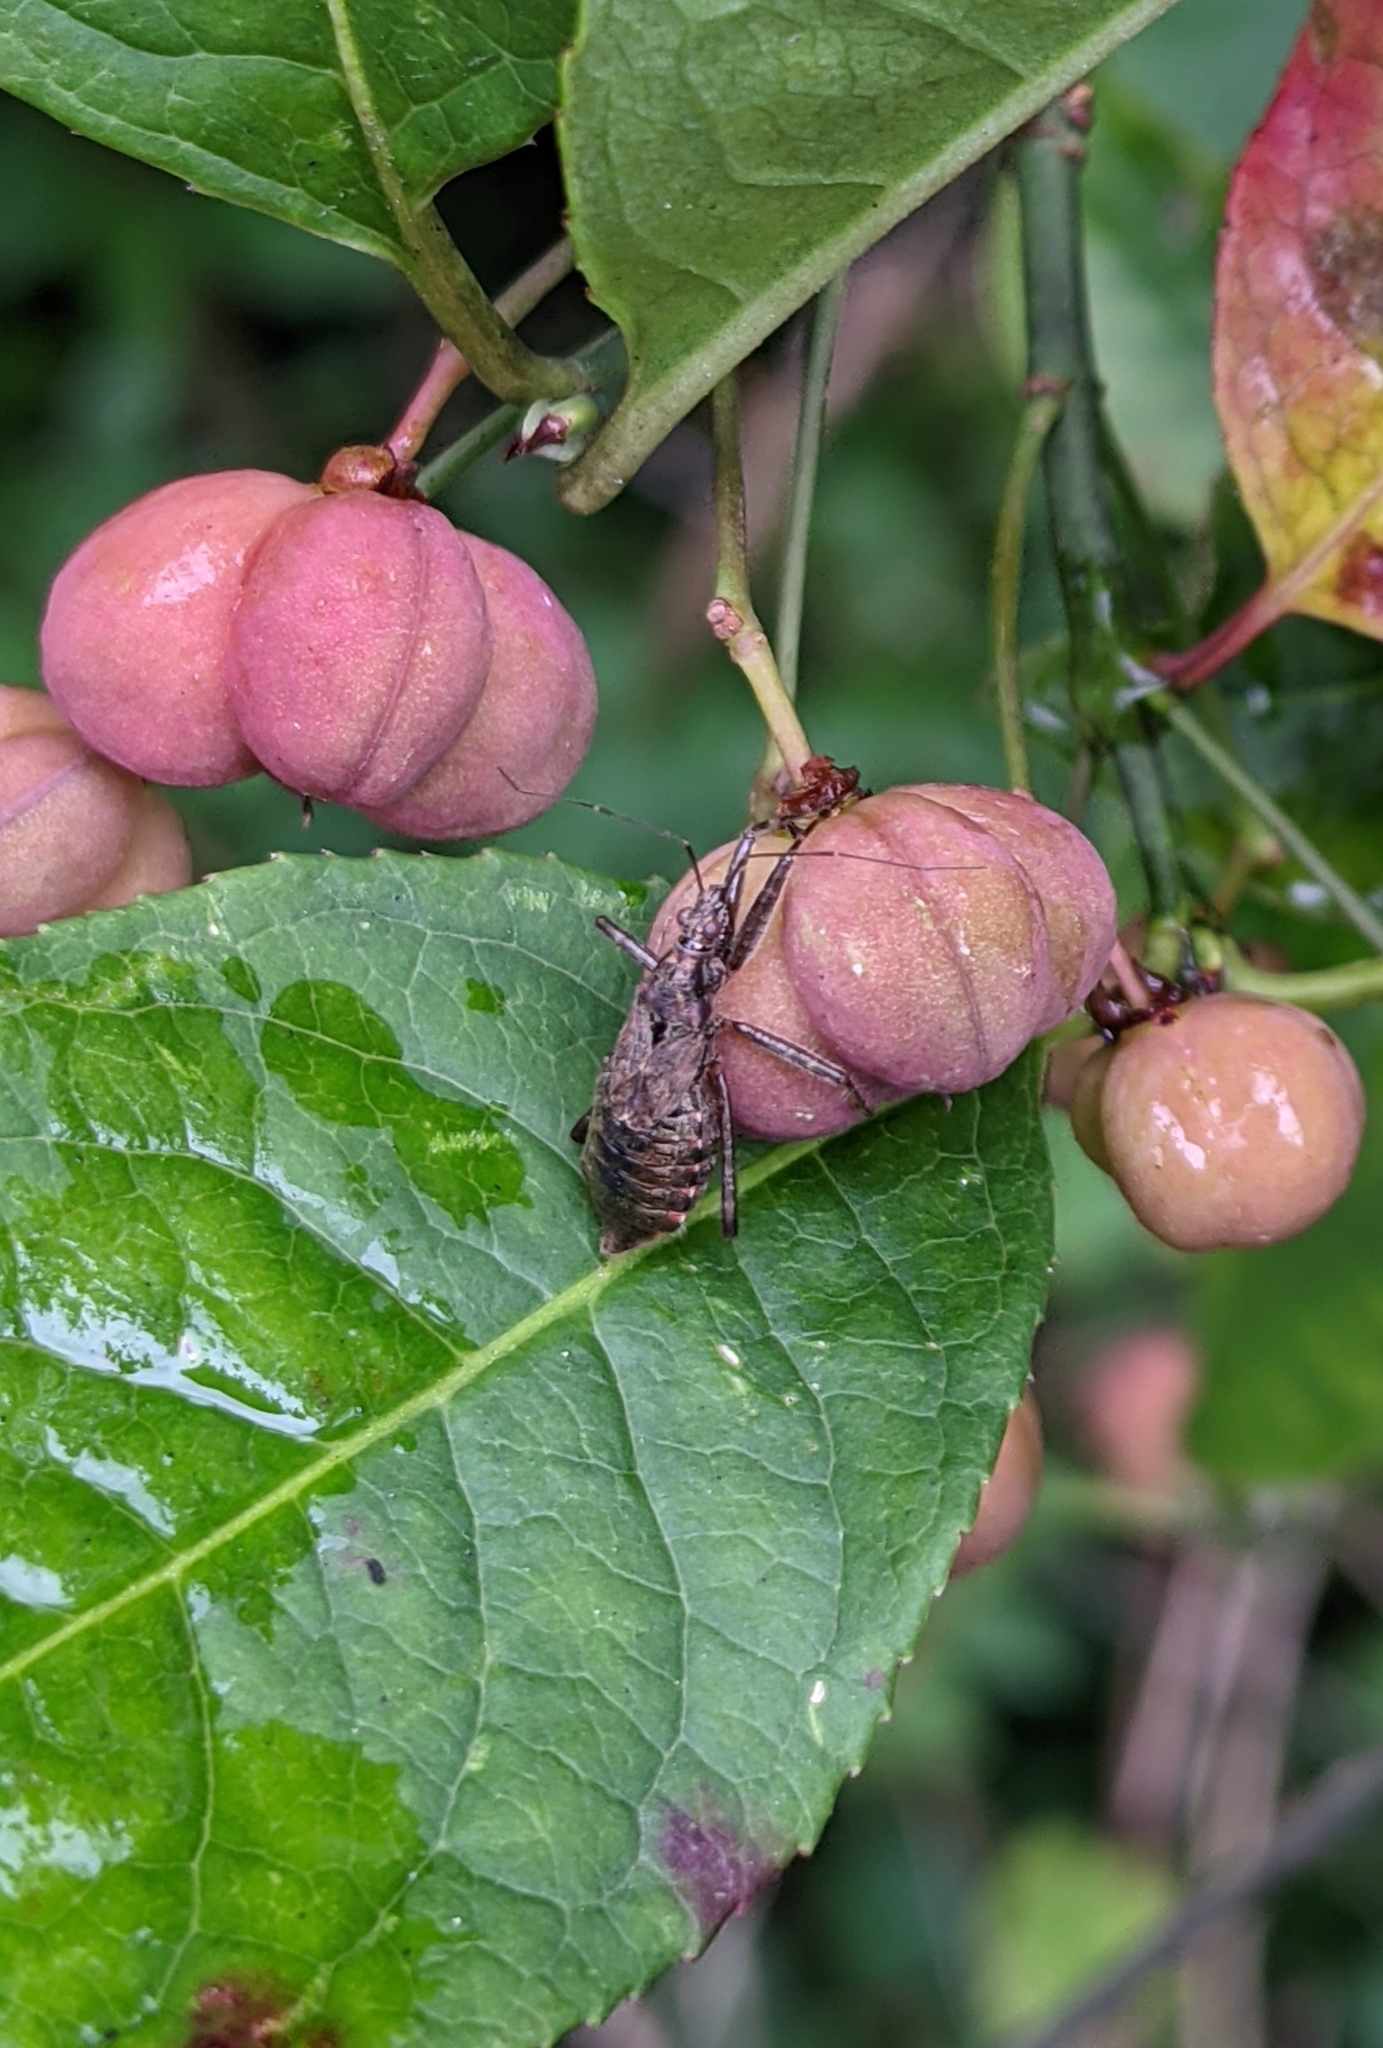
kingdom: Animalia
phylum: Arthropoda
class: Insecta
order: Hemiptera
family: Nabidae
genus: Himacerus
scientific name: Himacerus apterus
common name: Tree damsel bug
